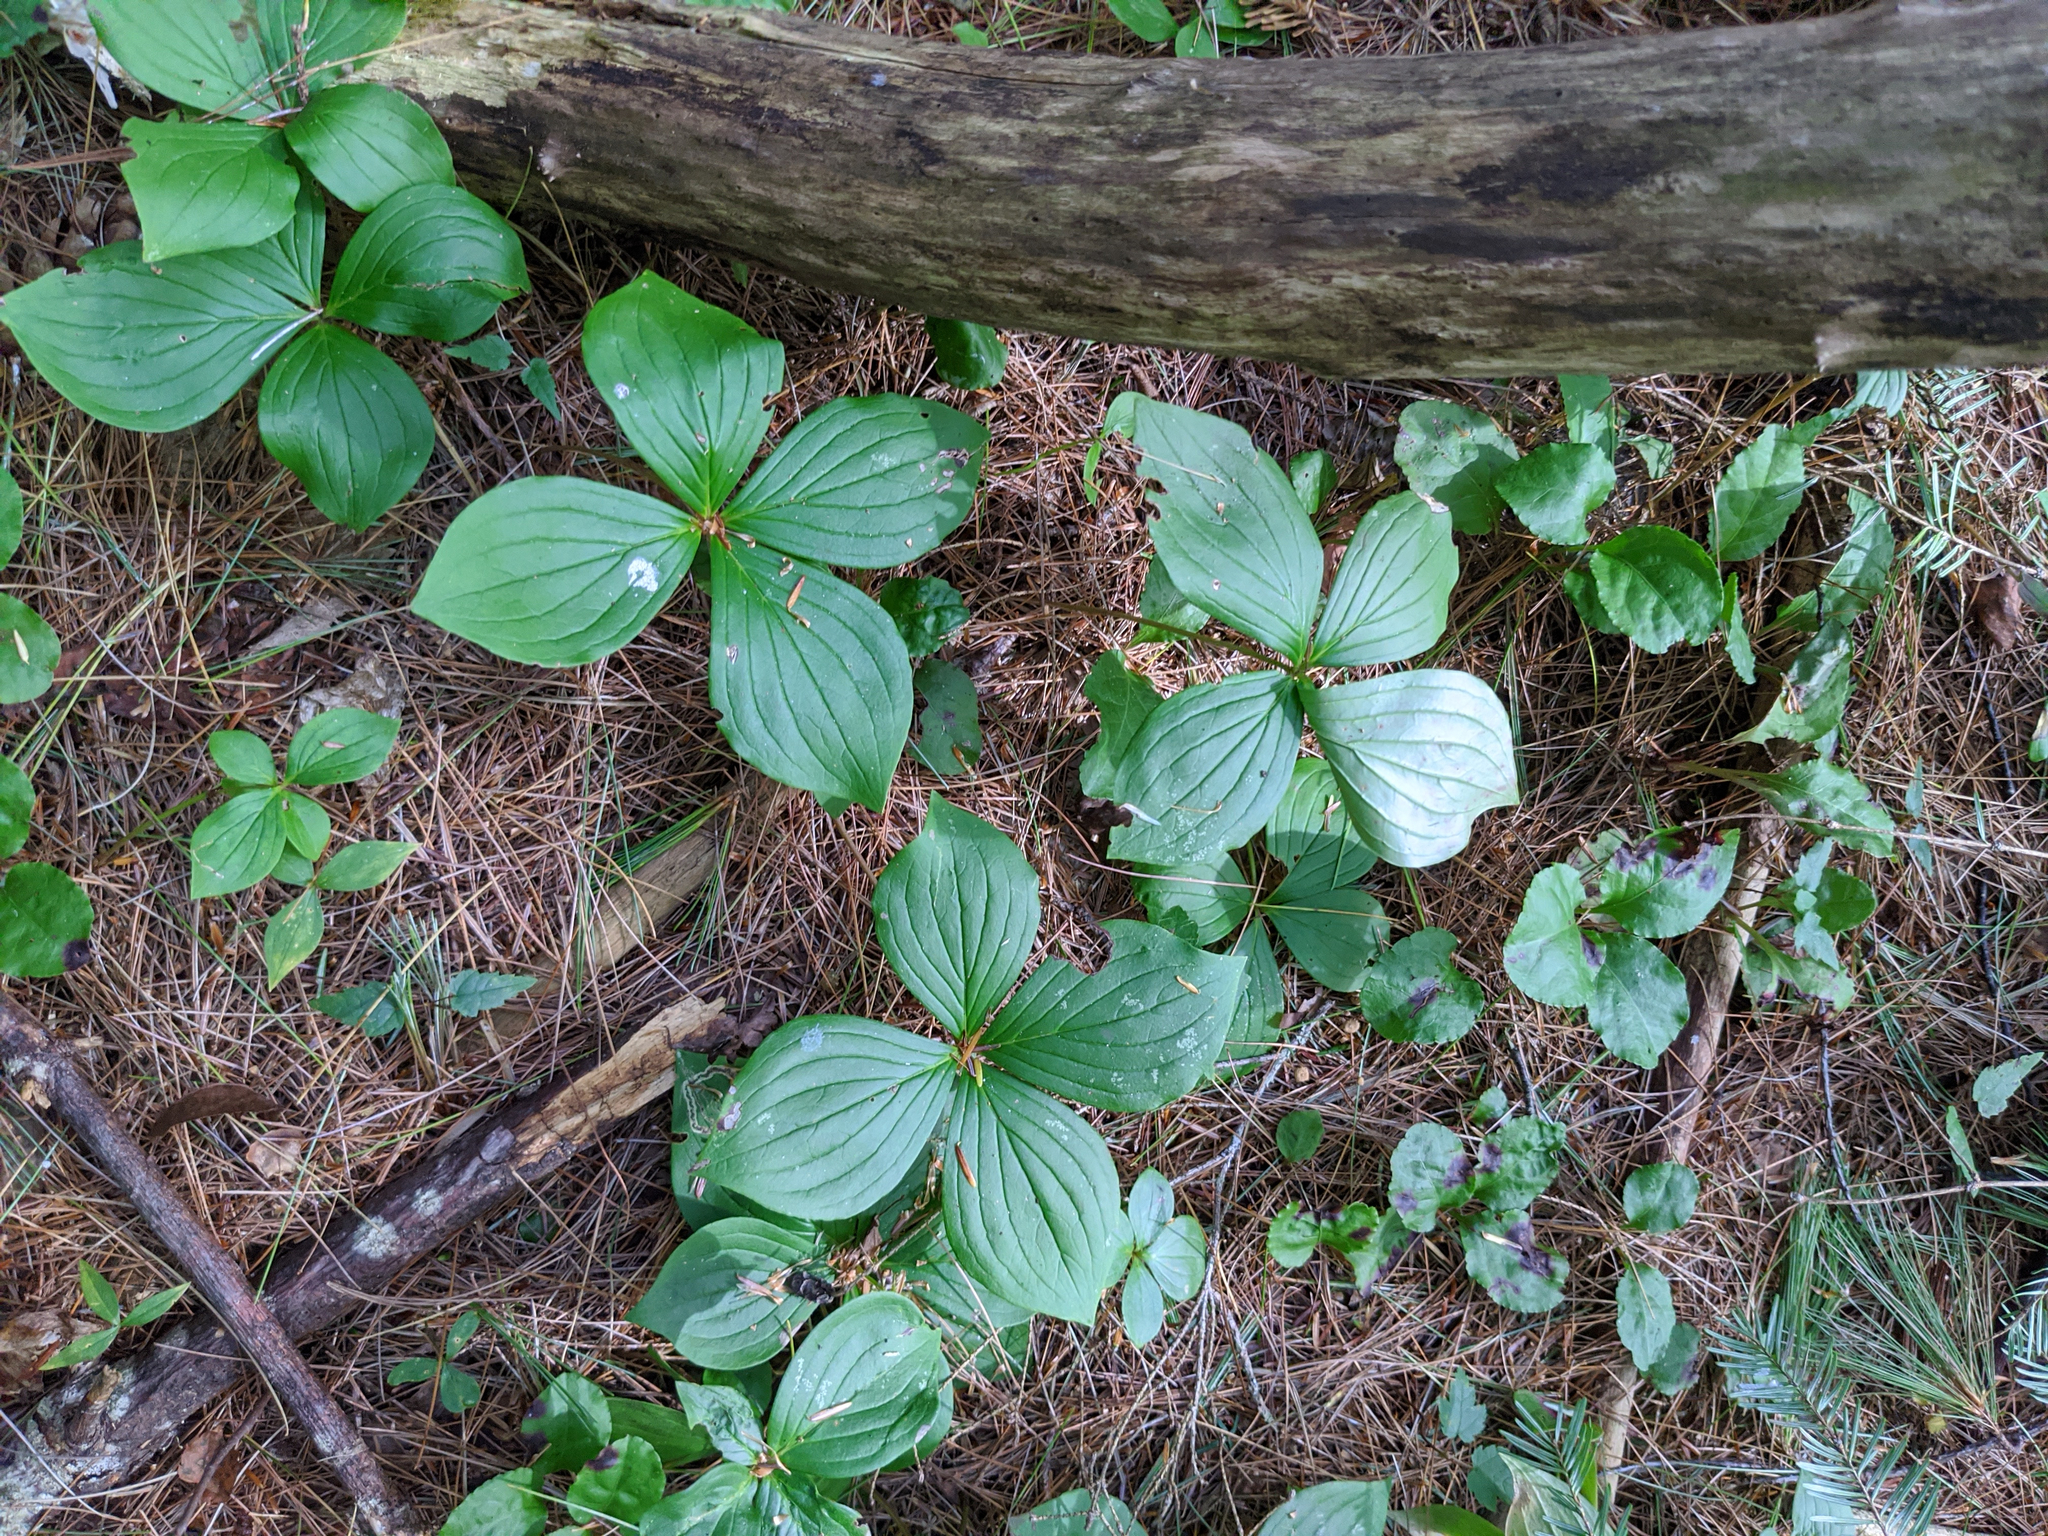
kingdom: Plantae
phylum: Tracheophyta
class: Magnoliopsida
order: Cornales
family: Cornaceae
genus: Cornus
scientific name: Cornus canadensis
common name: Creeping dogwood
